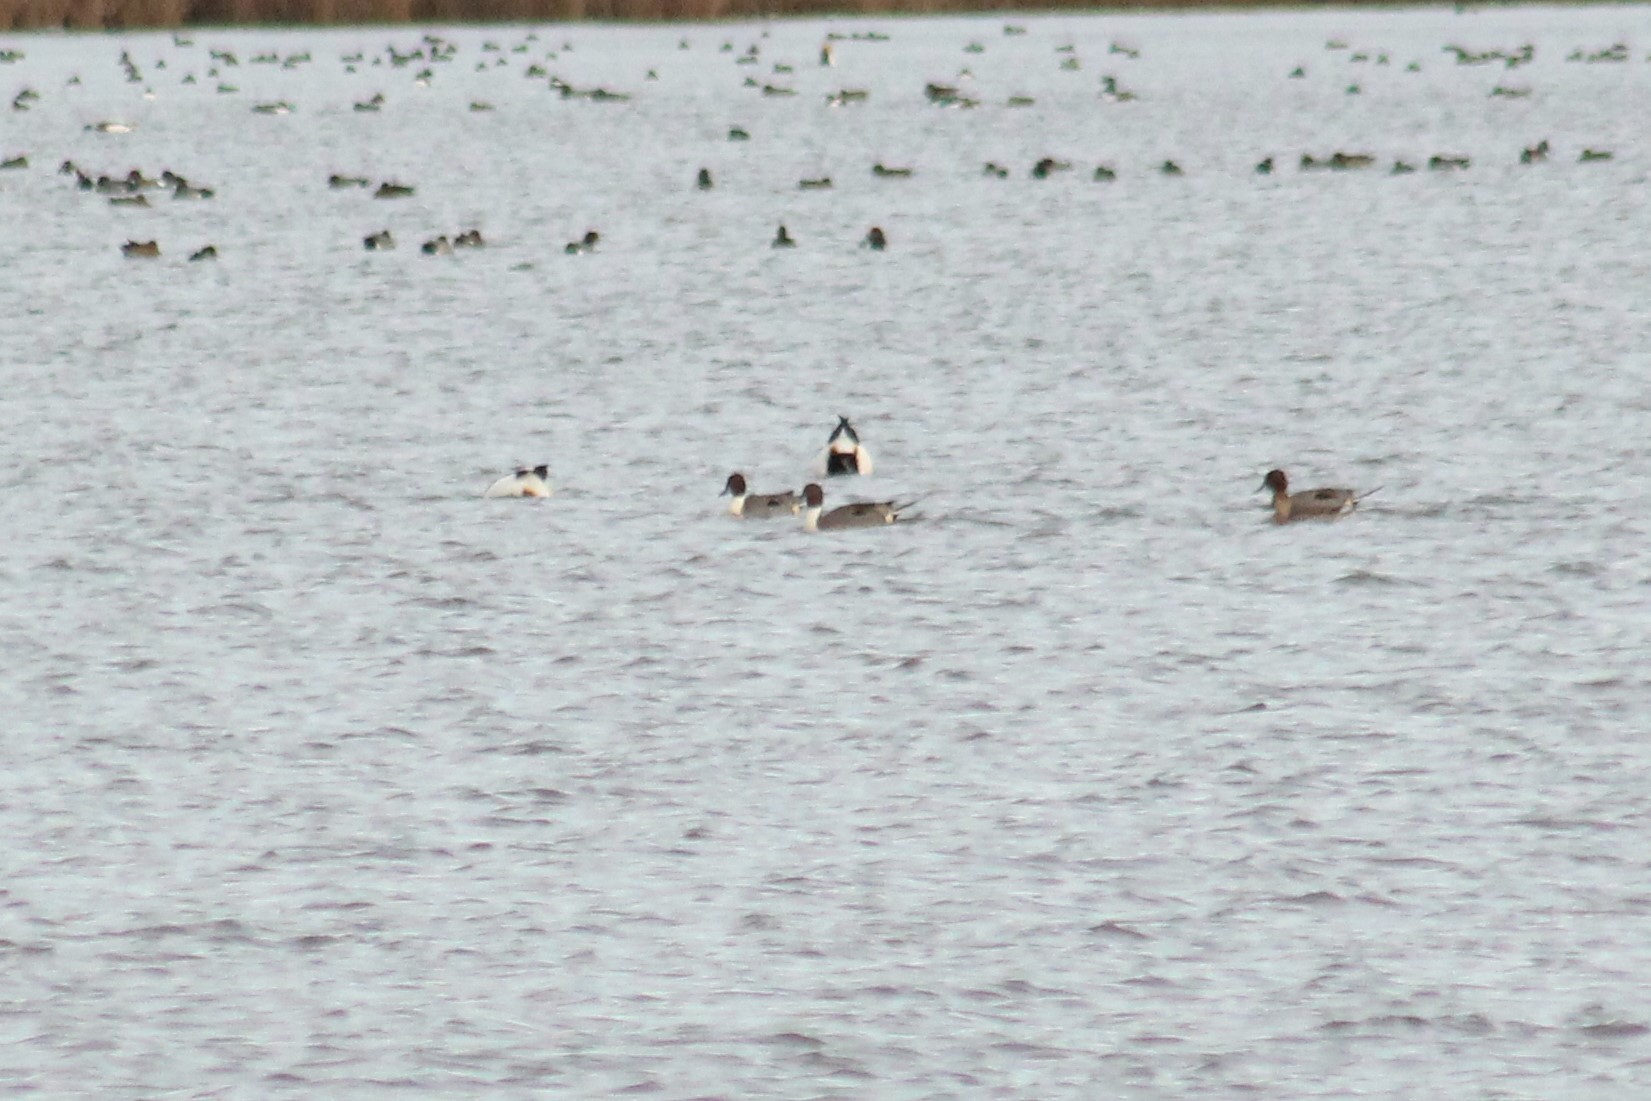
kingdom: Animalia
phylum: Chordata
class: Aves
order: Anseriformes
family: Anatidae
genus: Anas
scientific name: Anas acuta
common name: Northern pintail
